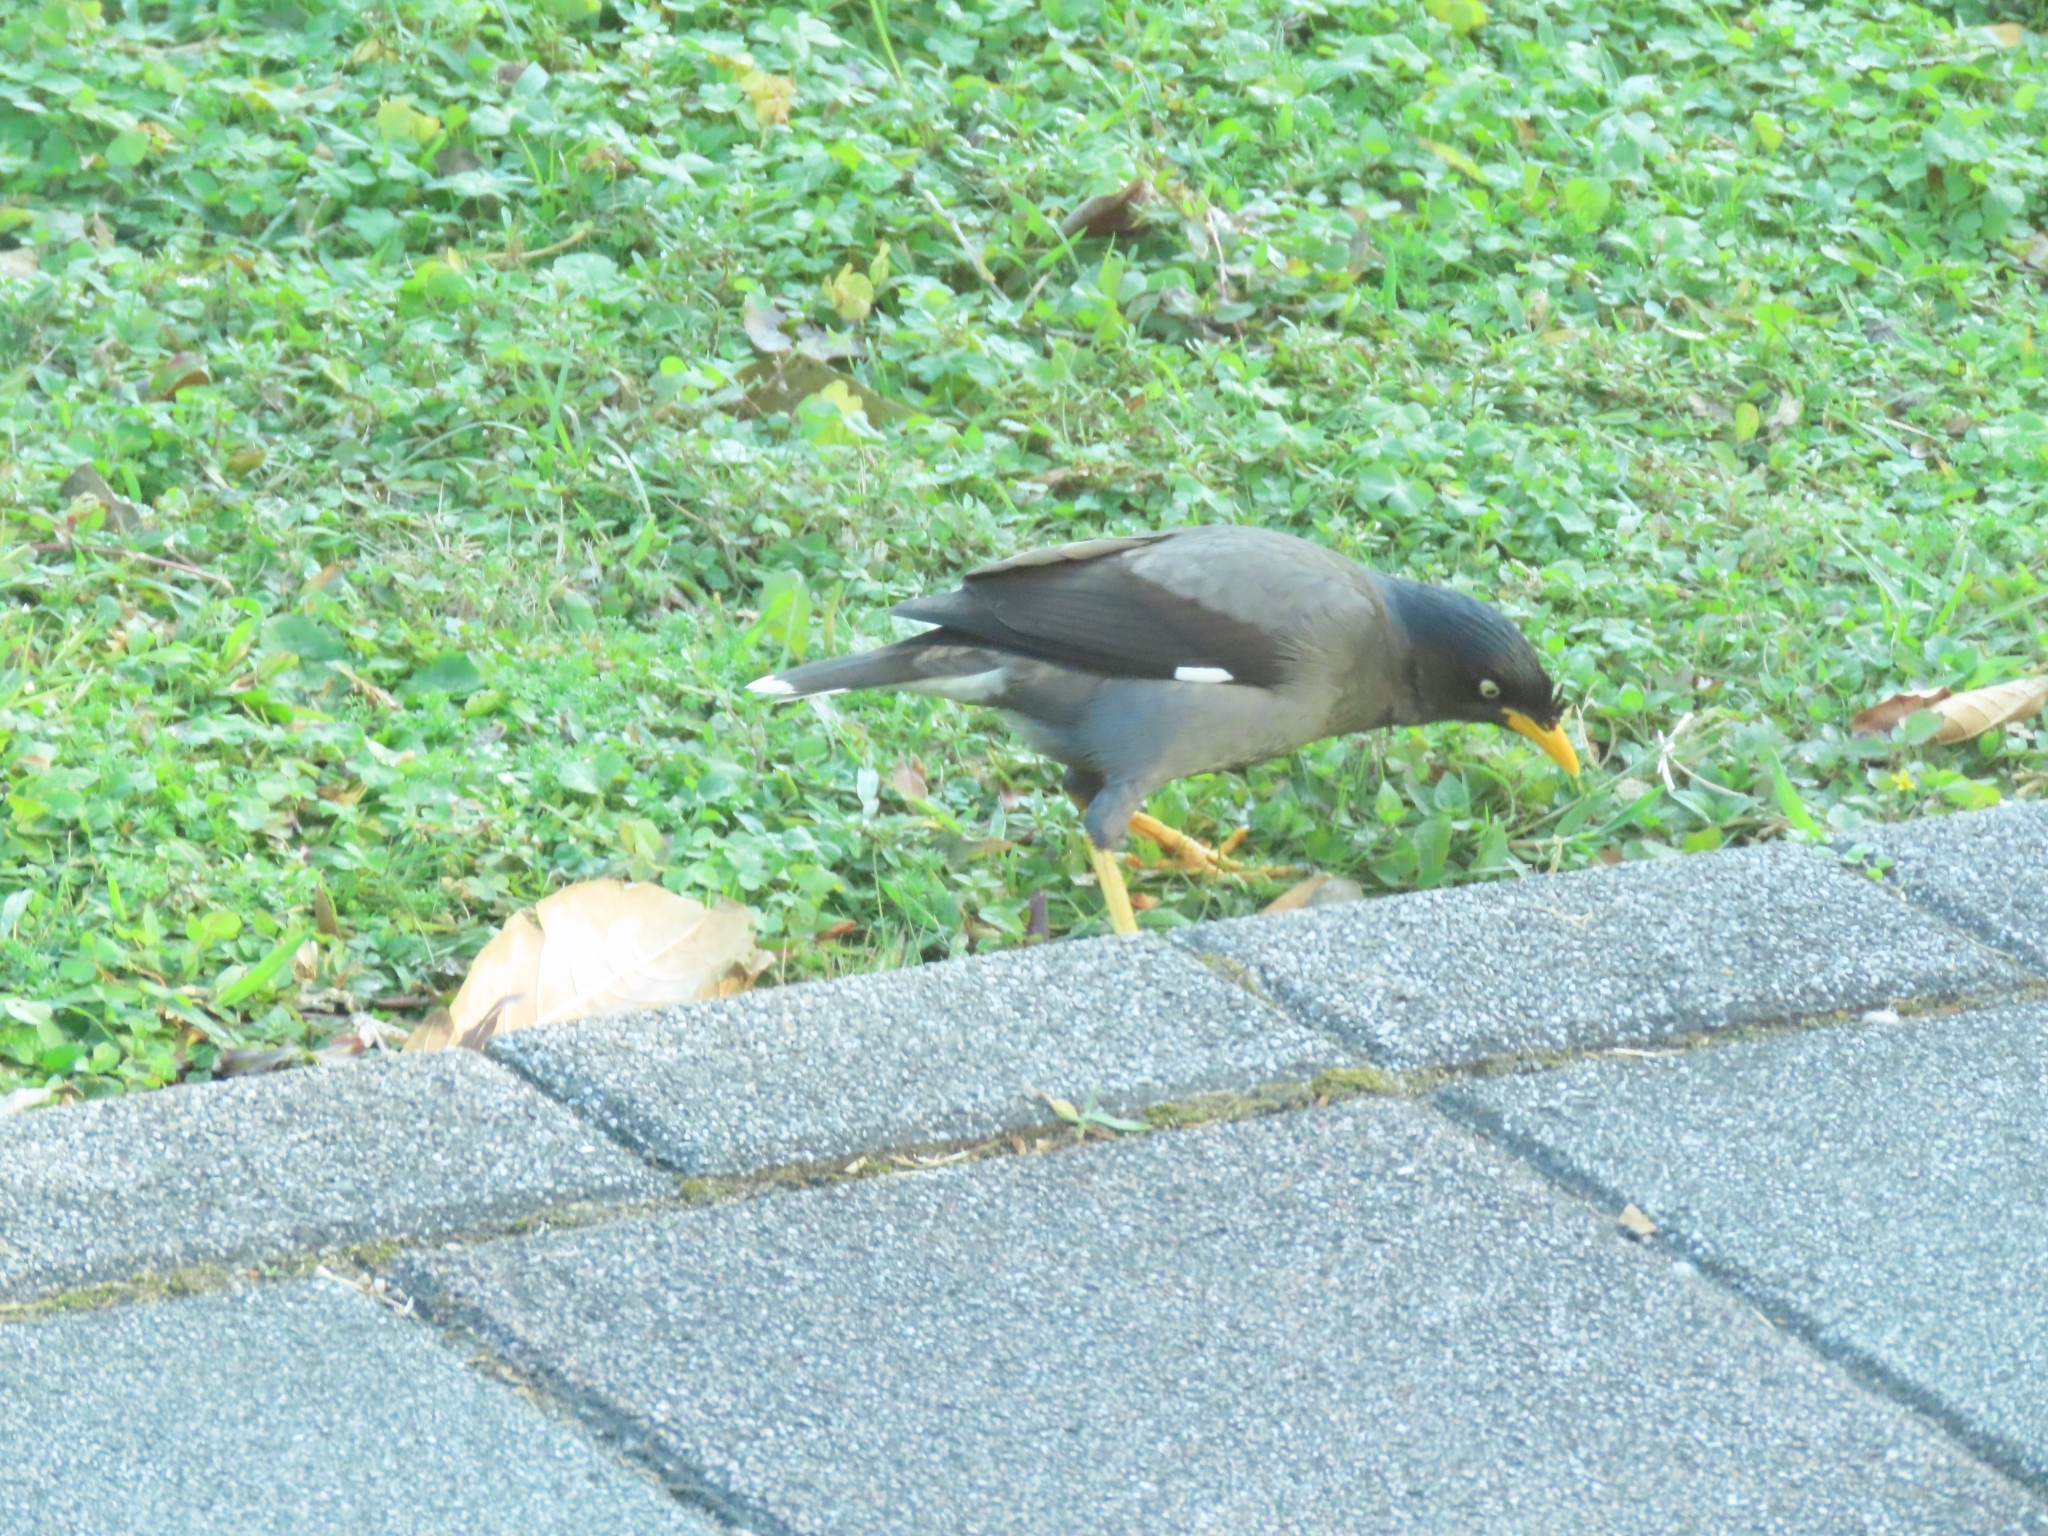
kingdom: Animalia
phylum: Chordata
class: Aves
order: Passeriformes
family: Sturnidae
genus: Acridotheres
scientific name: Acridotheres javanicus
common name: Javan myna
